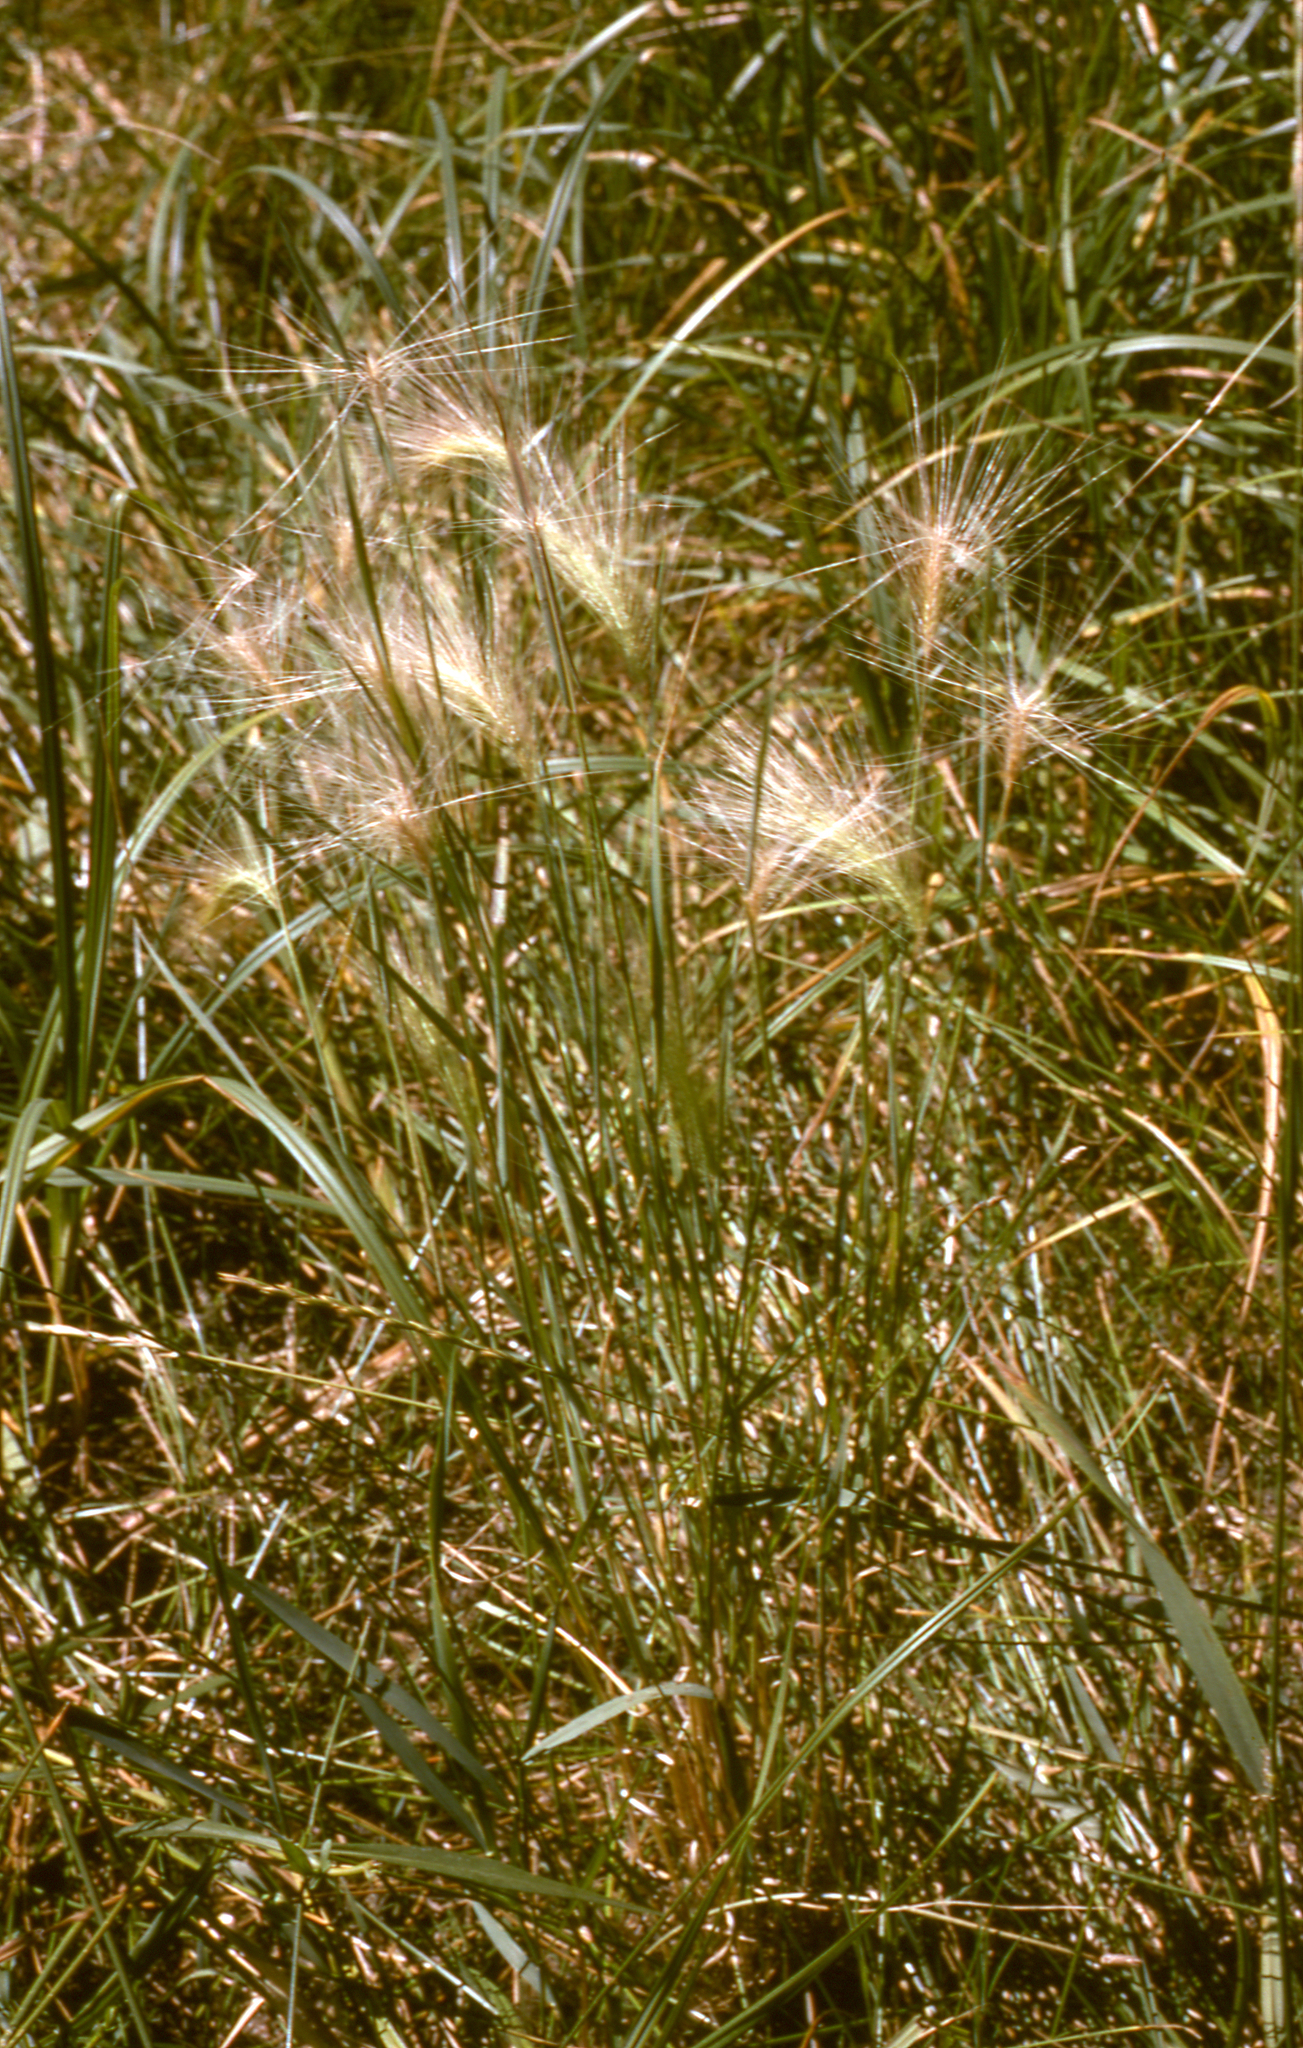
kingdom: Plantae
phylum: Tracheophyta
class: Liliopsida
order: Poales
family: Poaceae
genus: Hordeum
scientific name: Hordeum jubatum
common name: Foxtail barley
